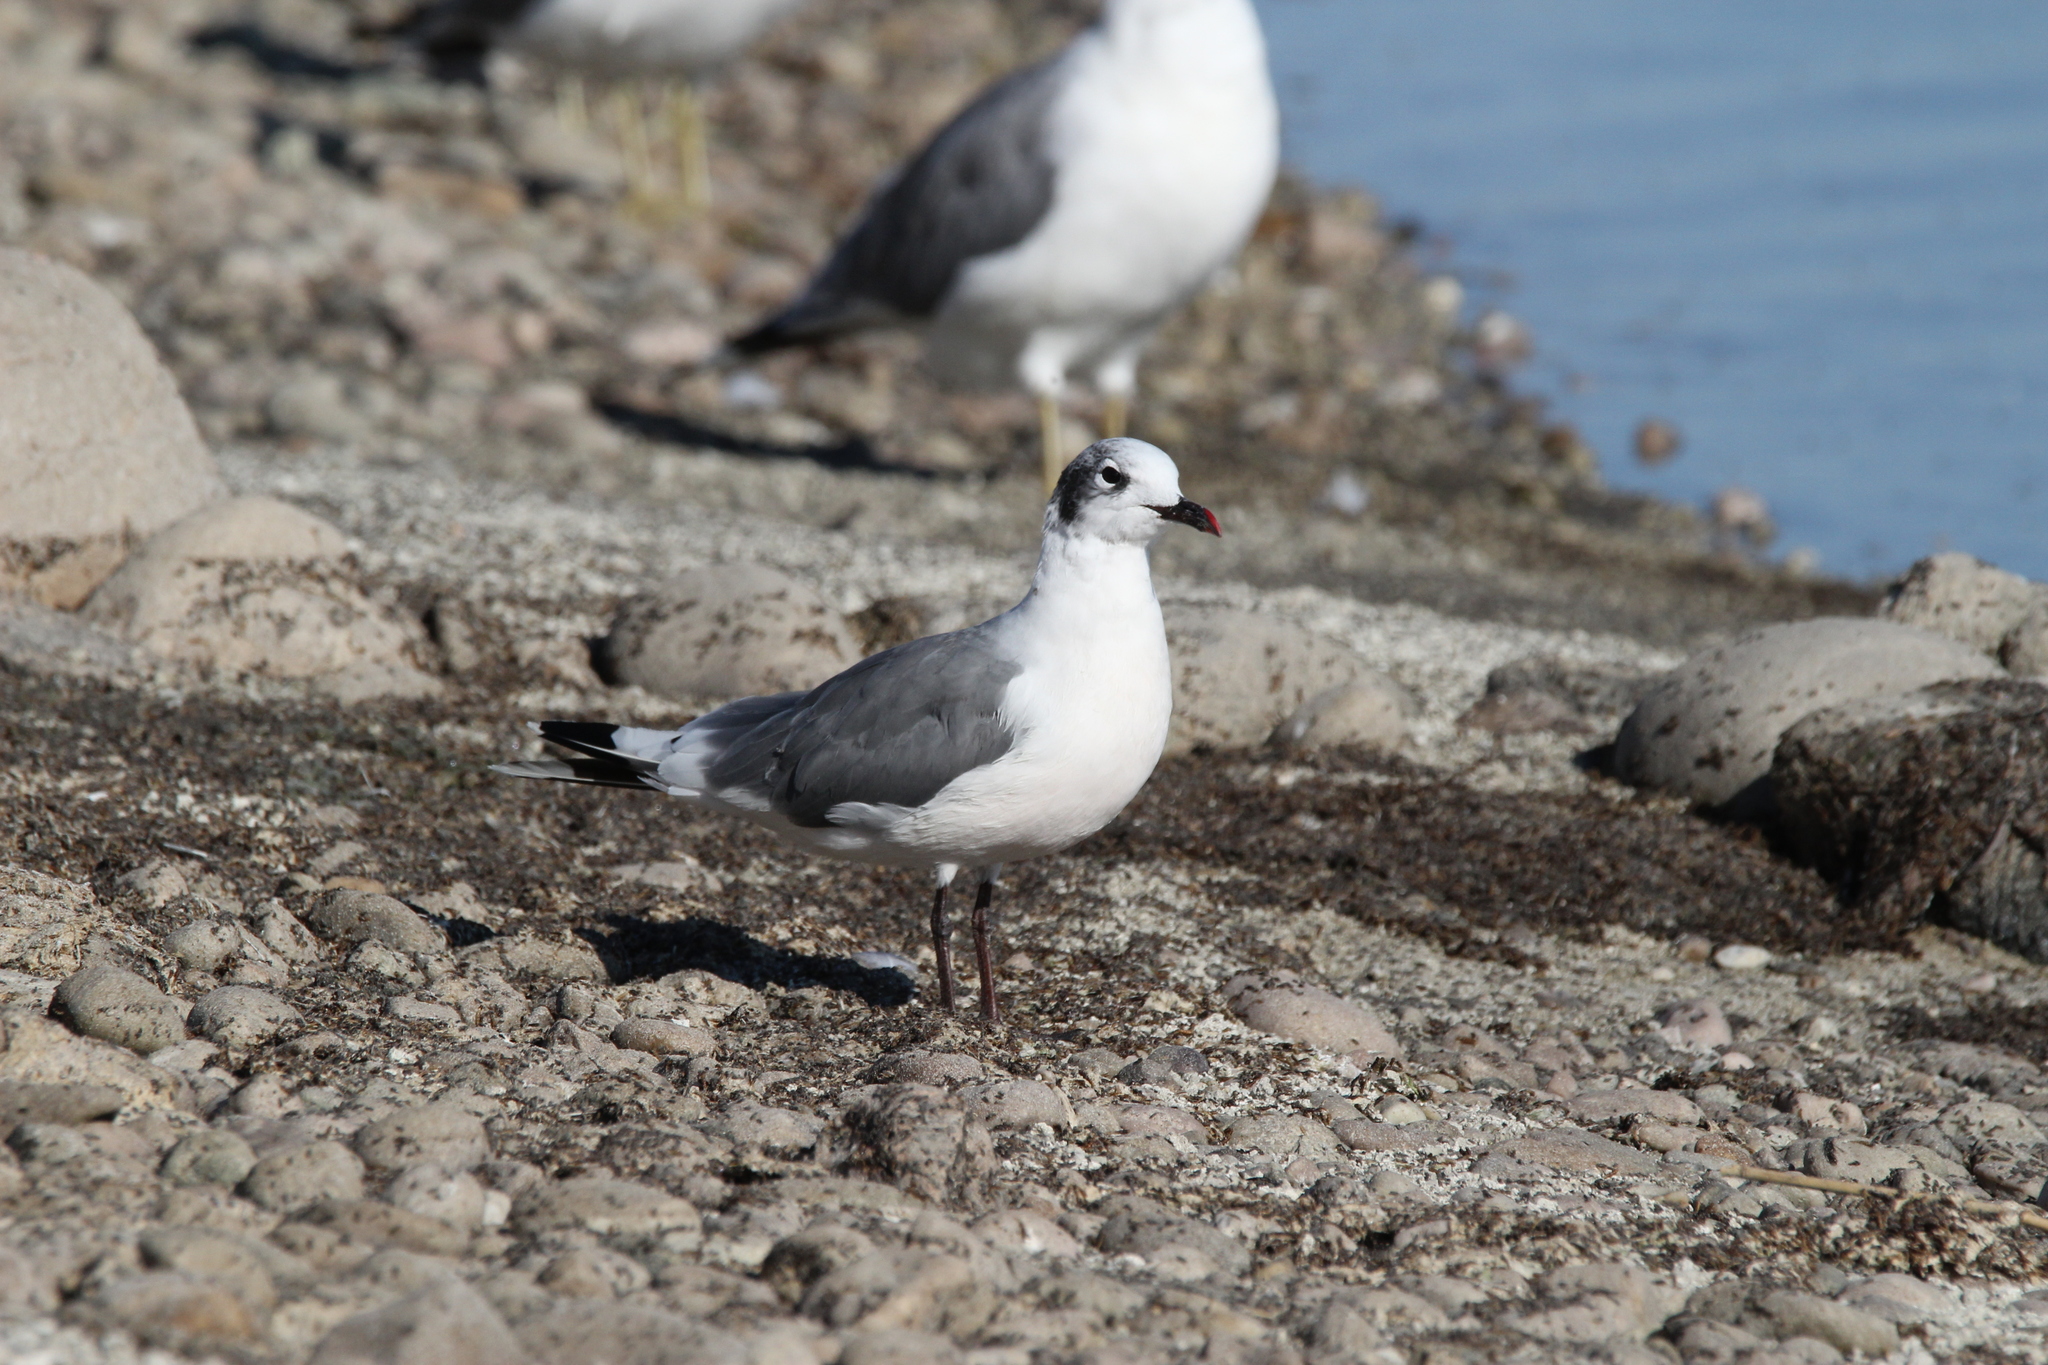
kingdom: Animalia
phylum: Chordata
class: Aves
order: Charadriiformes
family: Laridae
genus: Leucophaeus
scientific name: Leucophaeus pipixcan
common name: Franklin's gull
